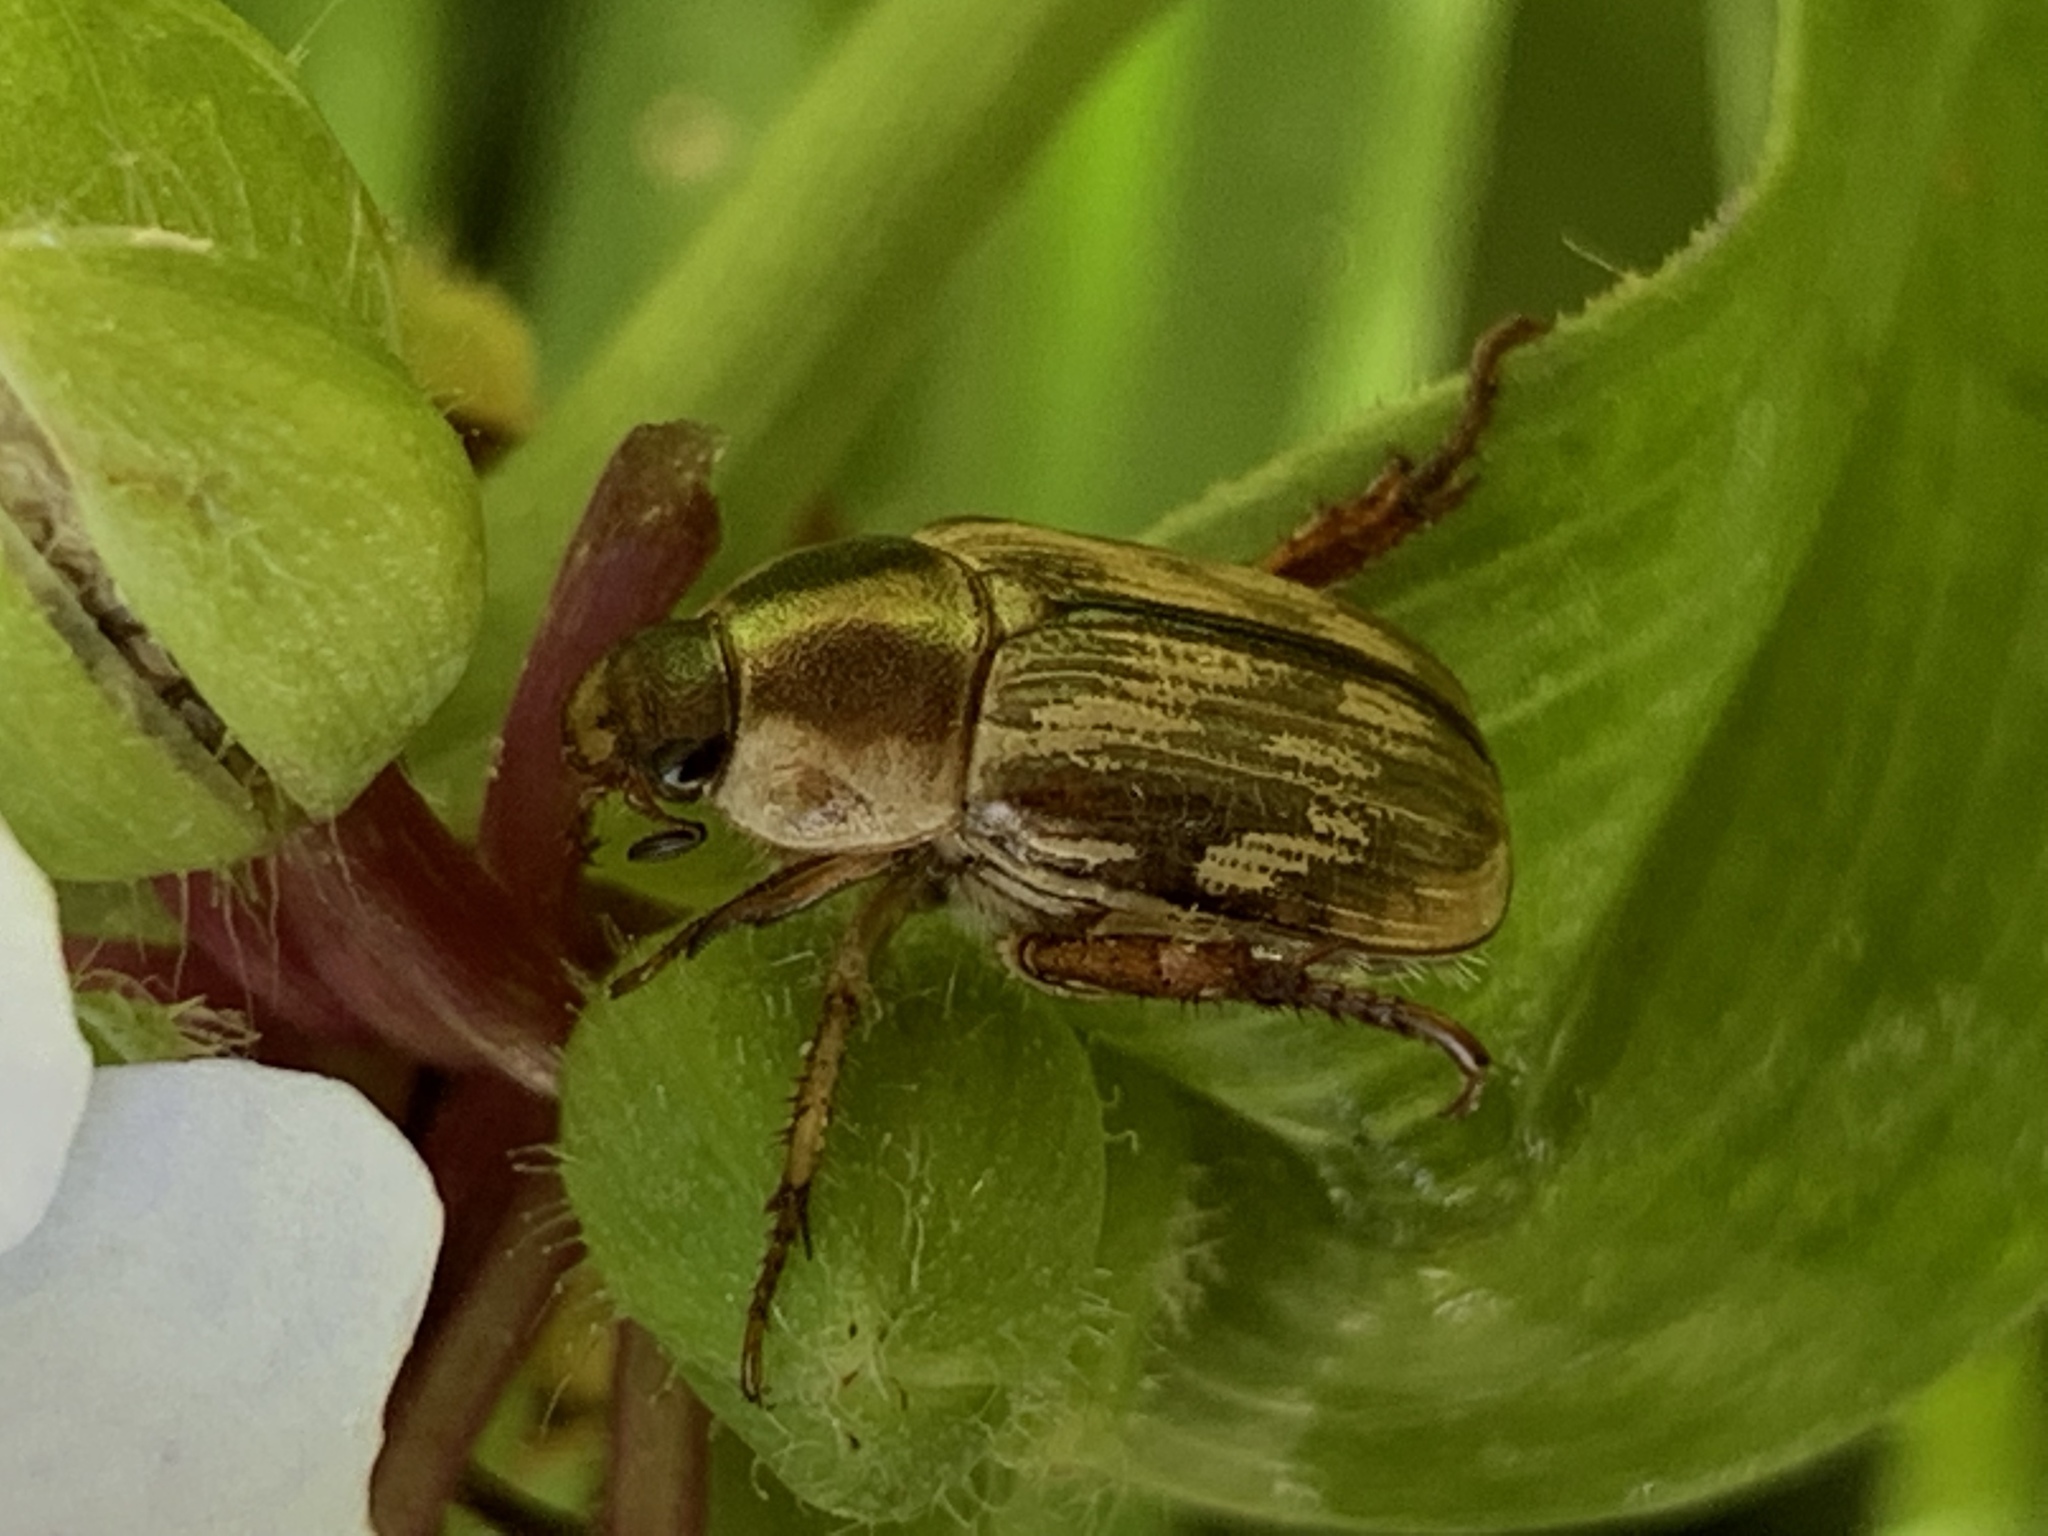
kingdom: Animalia
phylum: Arthropoda
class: Insecta
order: Coleoptera
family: Scarabaeidae
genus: Exomala
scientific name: Exomala orientalis
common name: Oriental beetle
